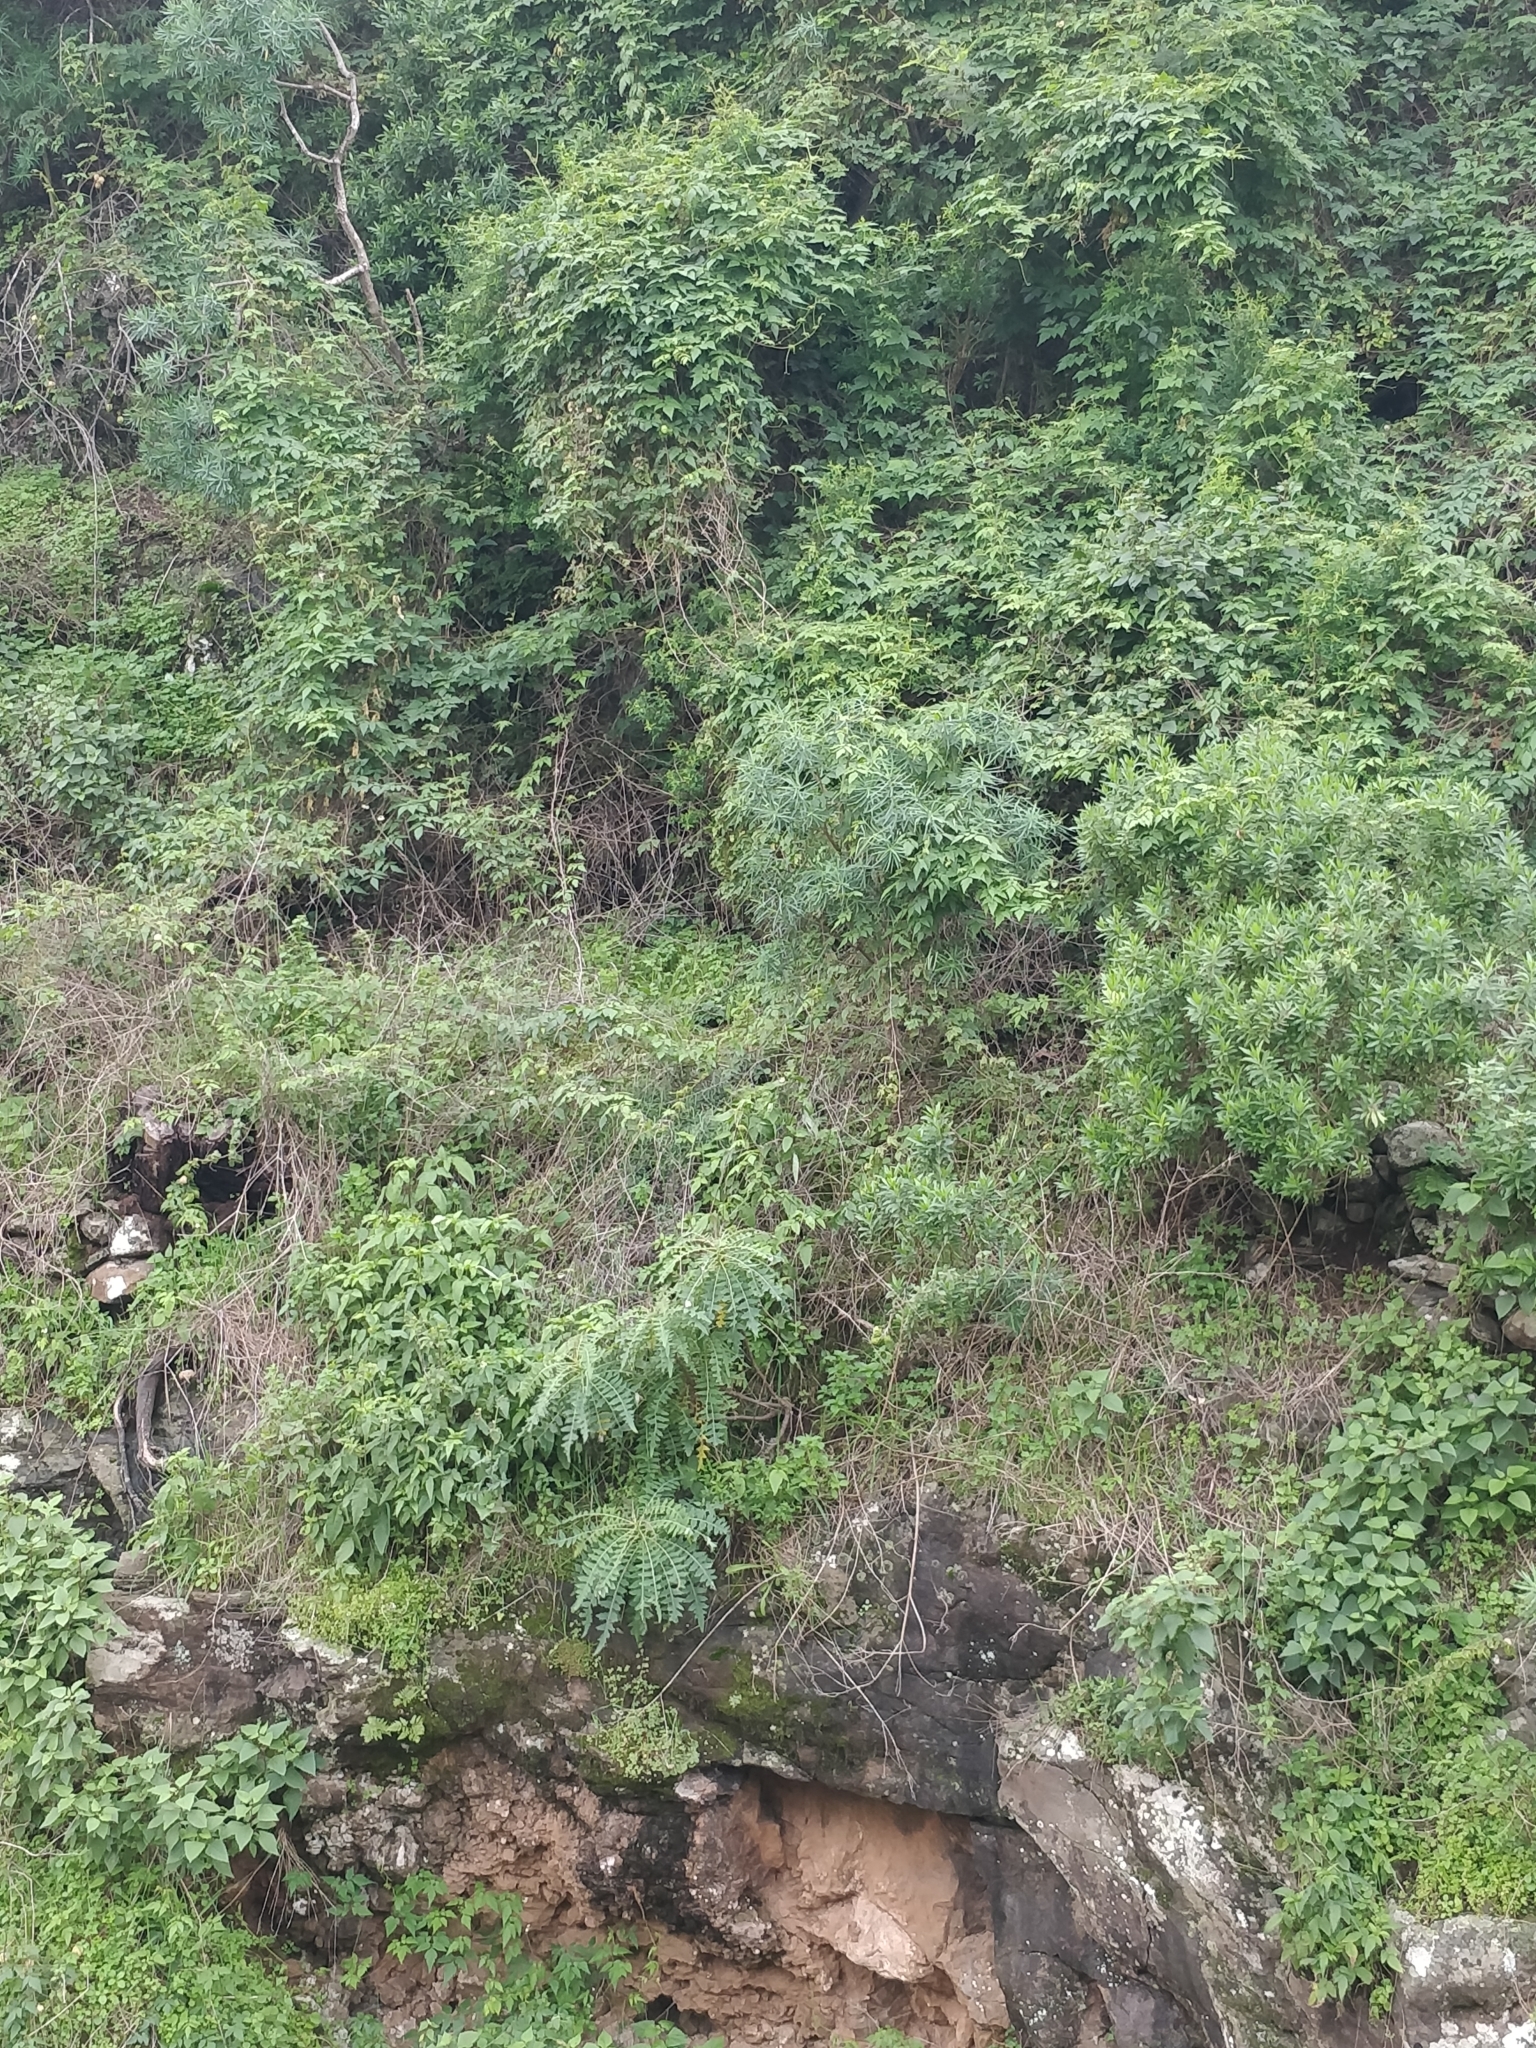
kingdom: Plantae
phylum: Tracheophyta
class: Magnoliopsida
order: Asterales
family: Asteraceae
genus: Sonchus
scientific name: Sonchus pinnatus
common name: Wing-leaved sow-thistle
